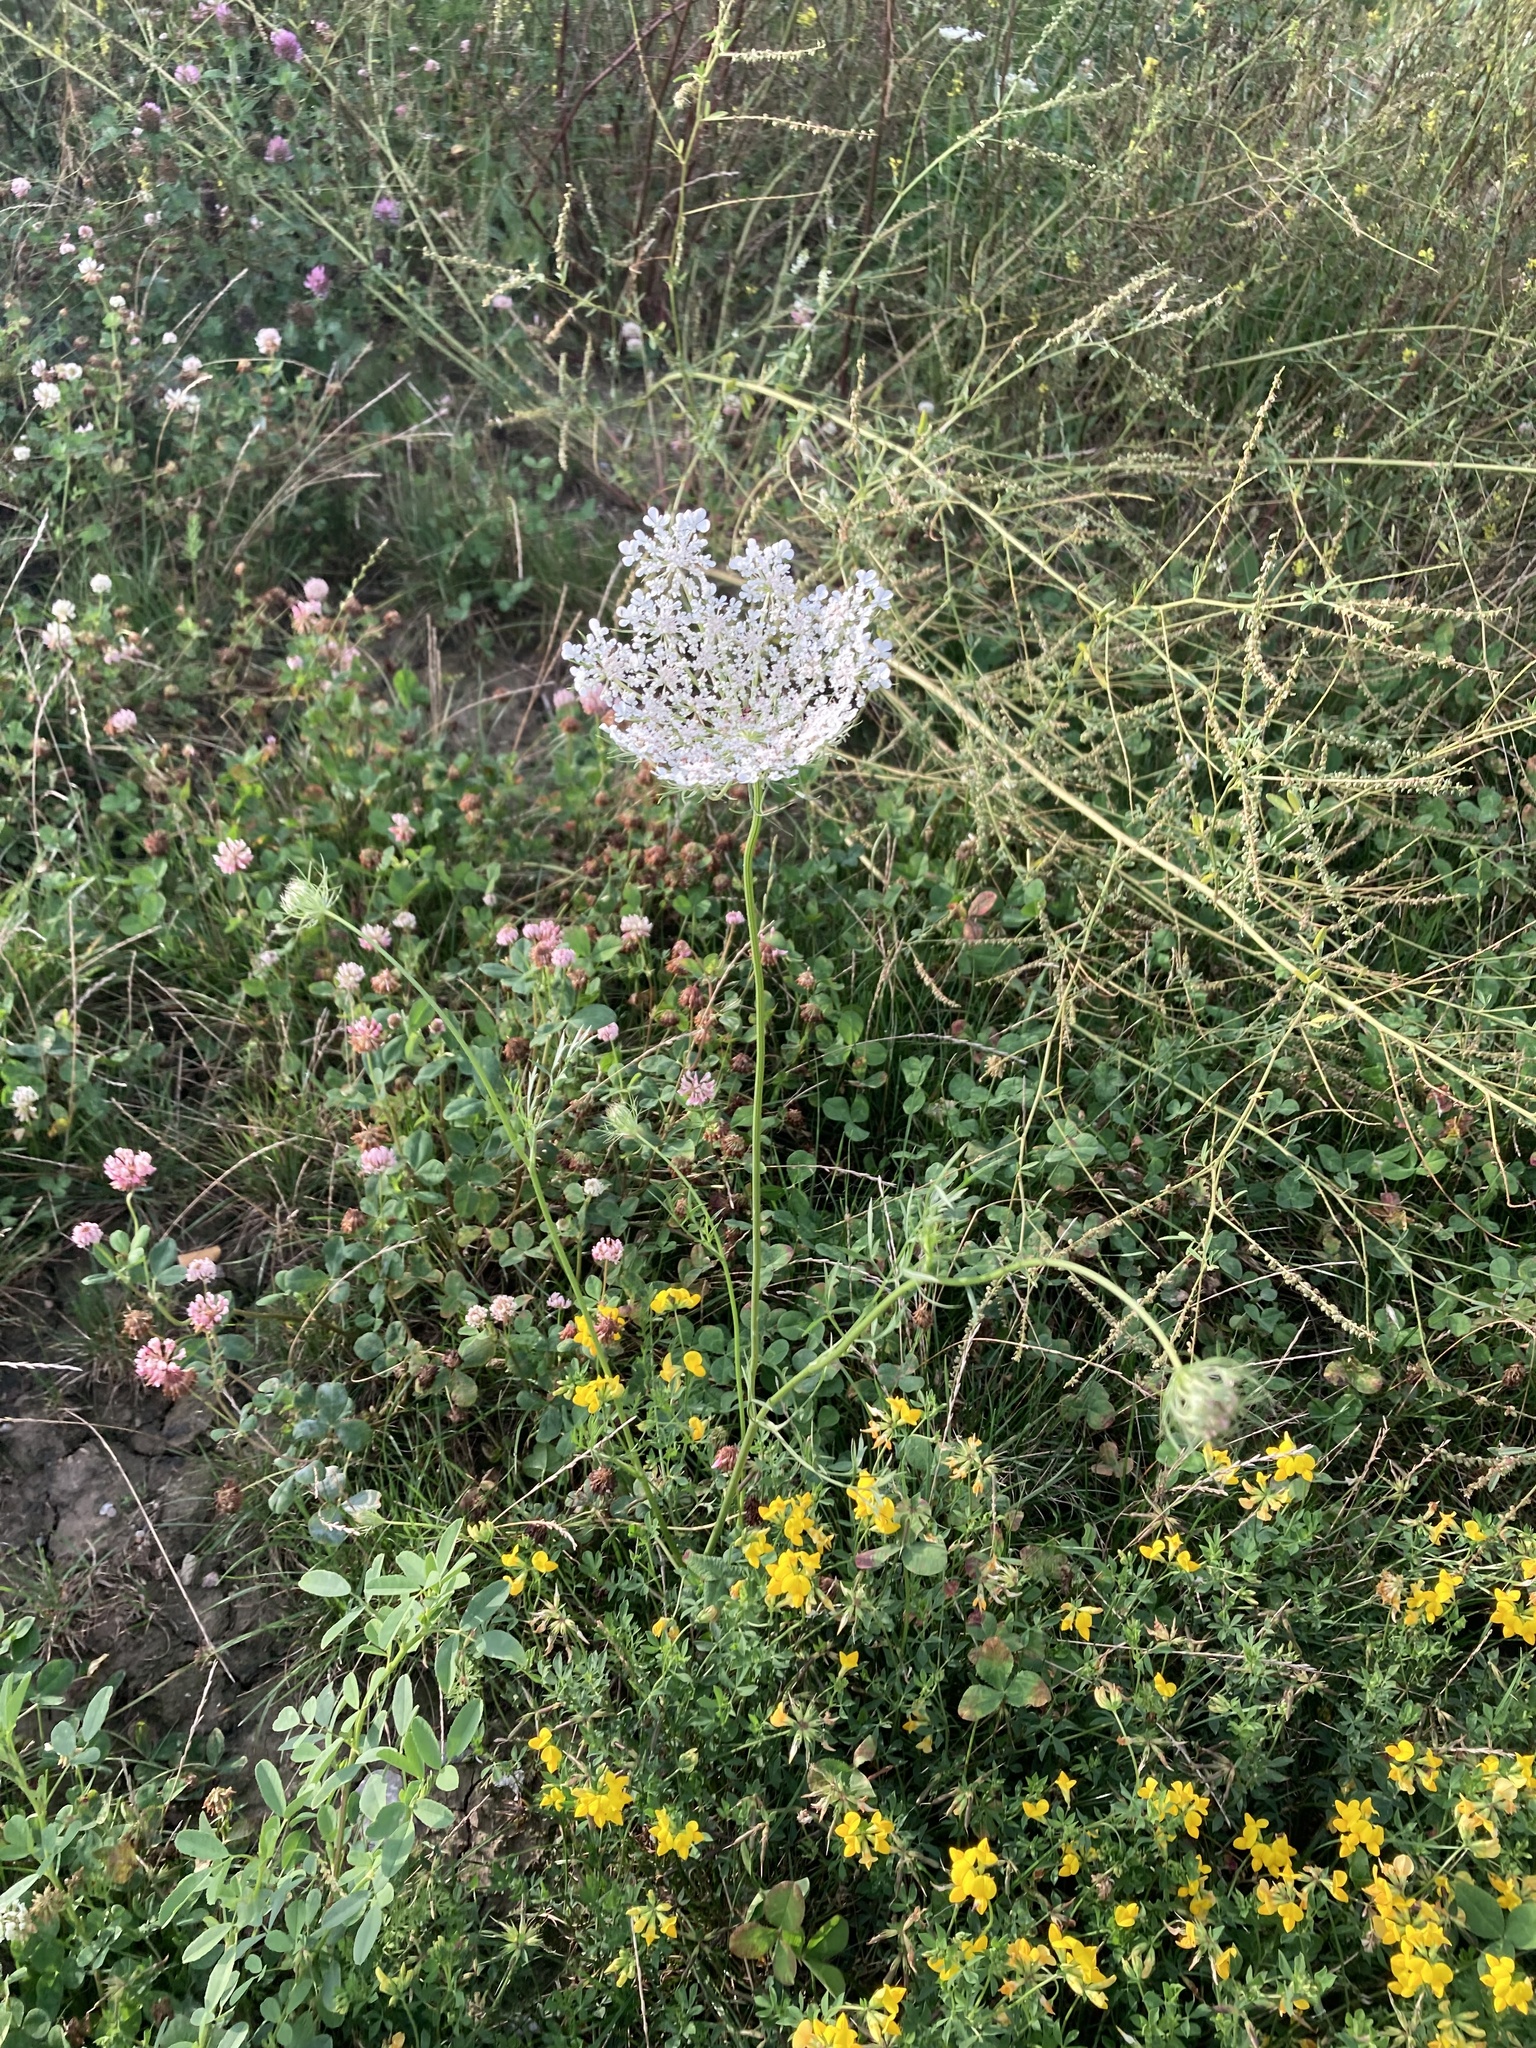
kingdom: Plantae
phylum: Tracheophyta
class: Magnoliopsida
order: Apiales
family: Apiaceae
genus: Daucus
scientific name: Daucus carota
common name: Wild carrot
